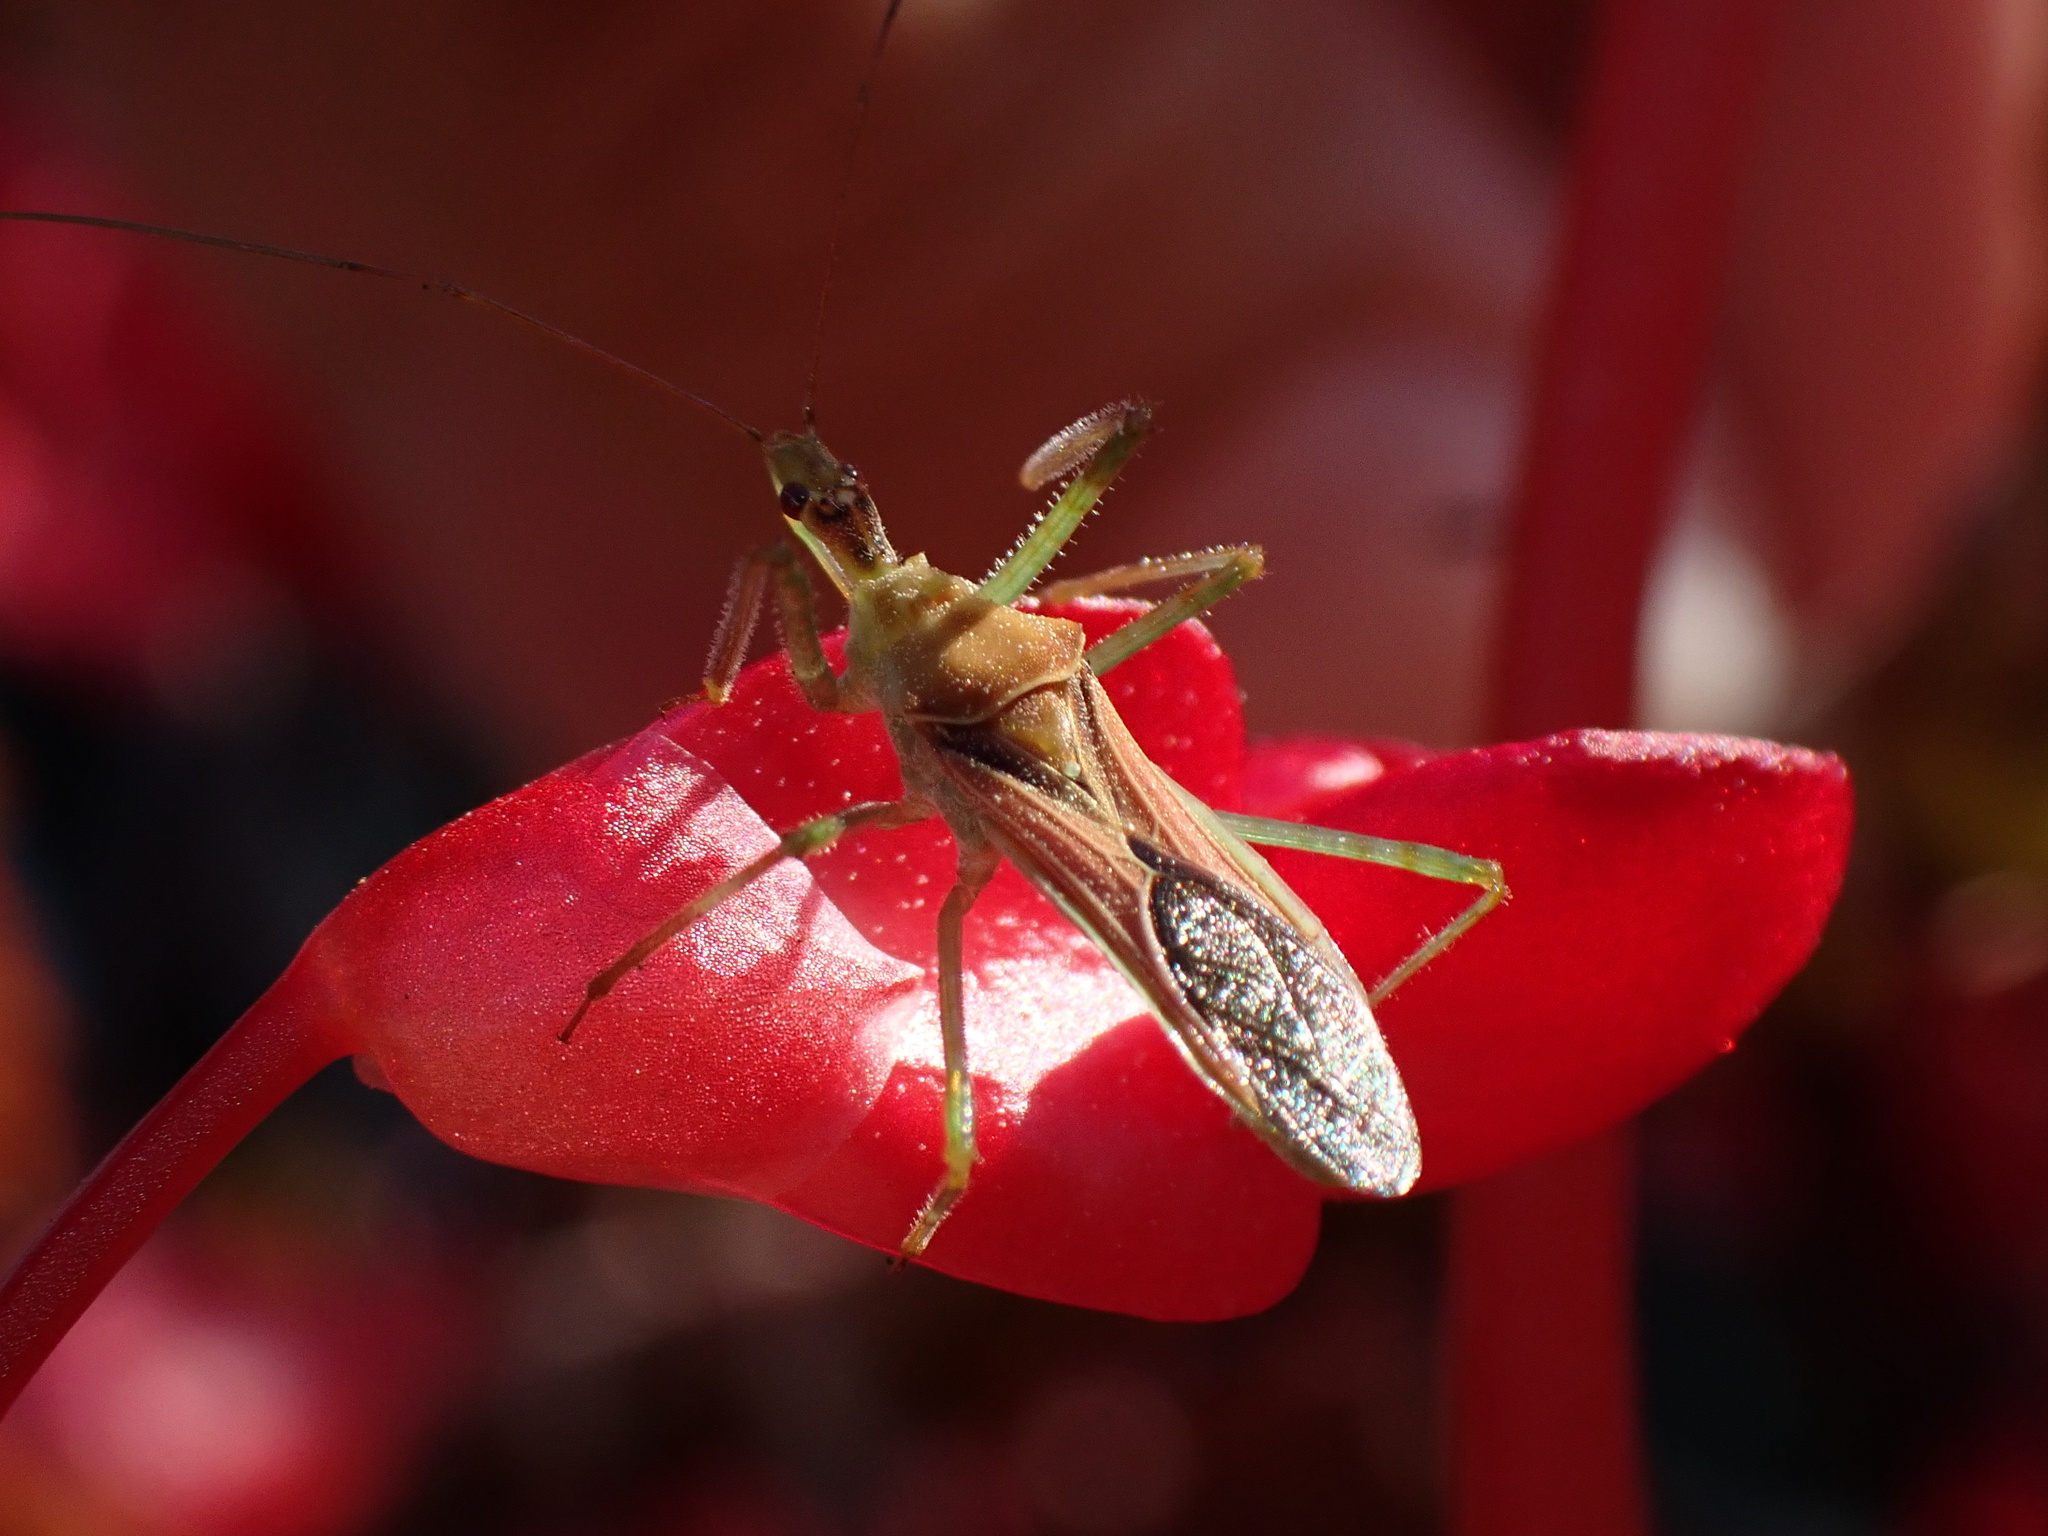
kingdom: Animalia
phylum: Arthropoda
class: Insecta
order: Hemiptera
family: Reduviidae
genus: Zelus
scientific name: Zelus renardii
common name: Assassin bug
